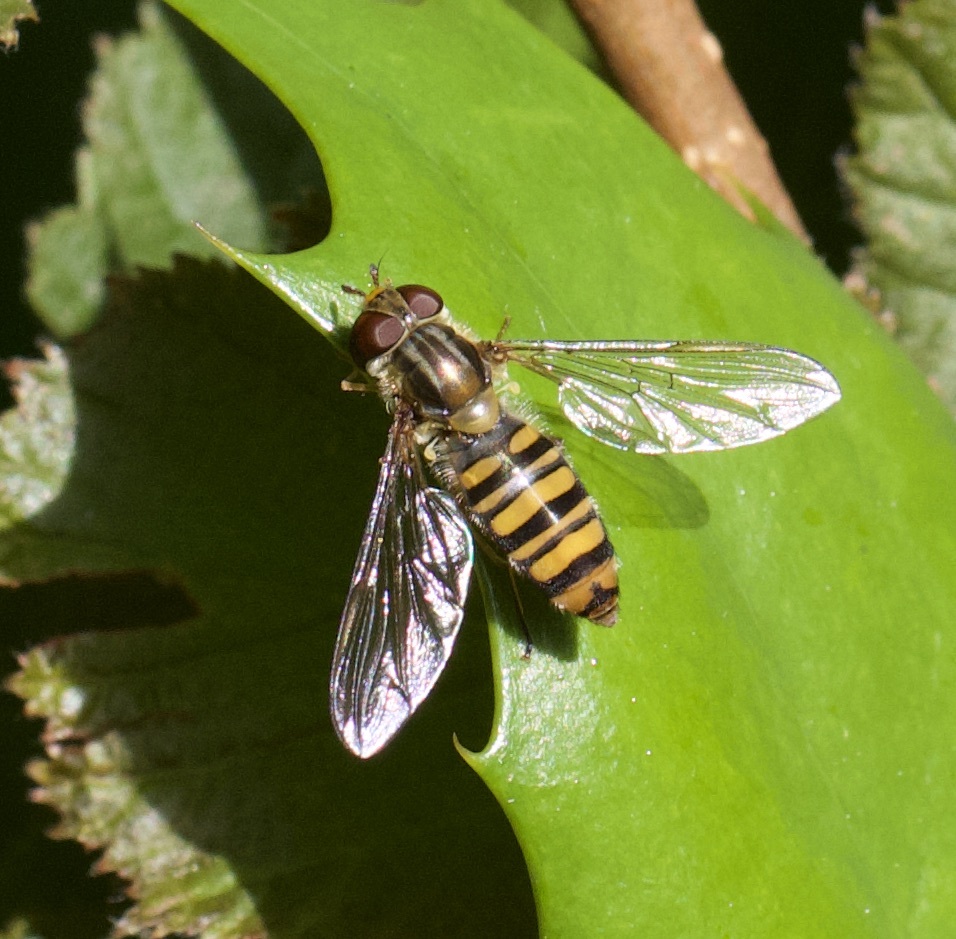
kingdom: Animalia
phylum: Arthropoda
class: Insecta
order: Diptera
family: Syrphidae
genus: Episyrphus
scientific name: Episyrphus balteatus
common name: Marmalade hoverfly
